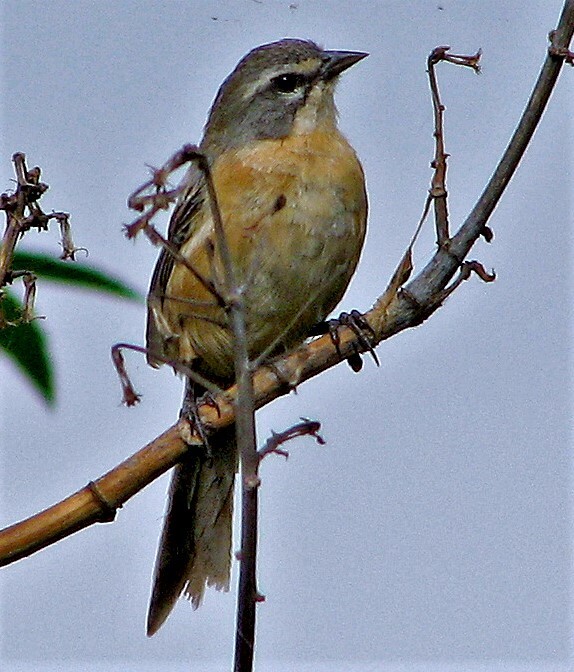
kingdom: Animalia
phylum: Chordata
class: Aves
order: Passeriformes
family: Thraupidae
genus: Donacospiza
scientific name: Donacospiza albifrons
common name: Long-tailed reed finch
